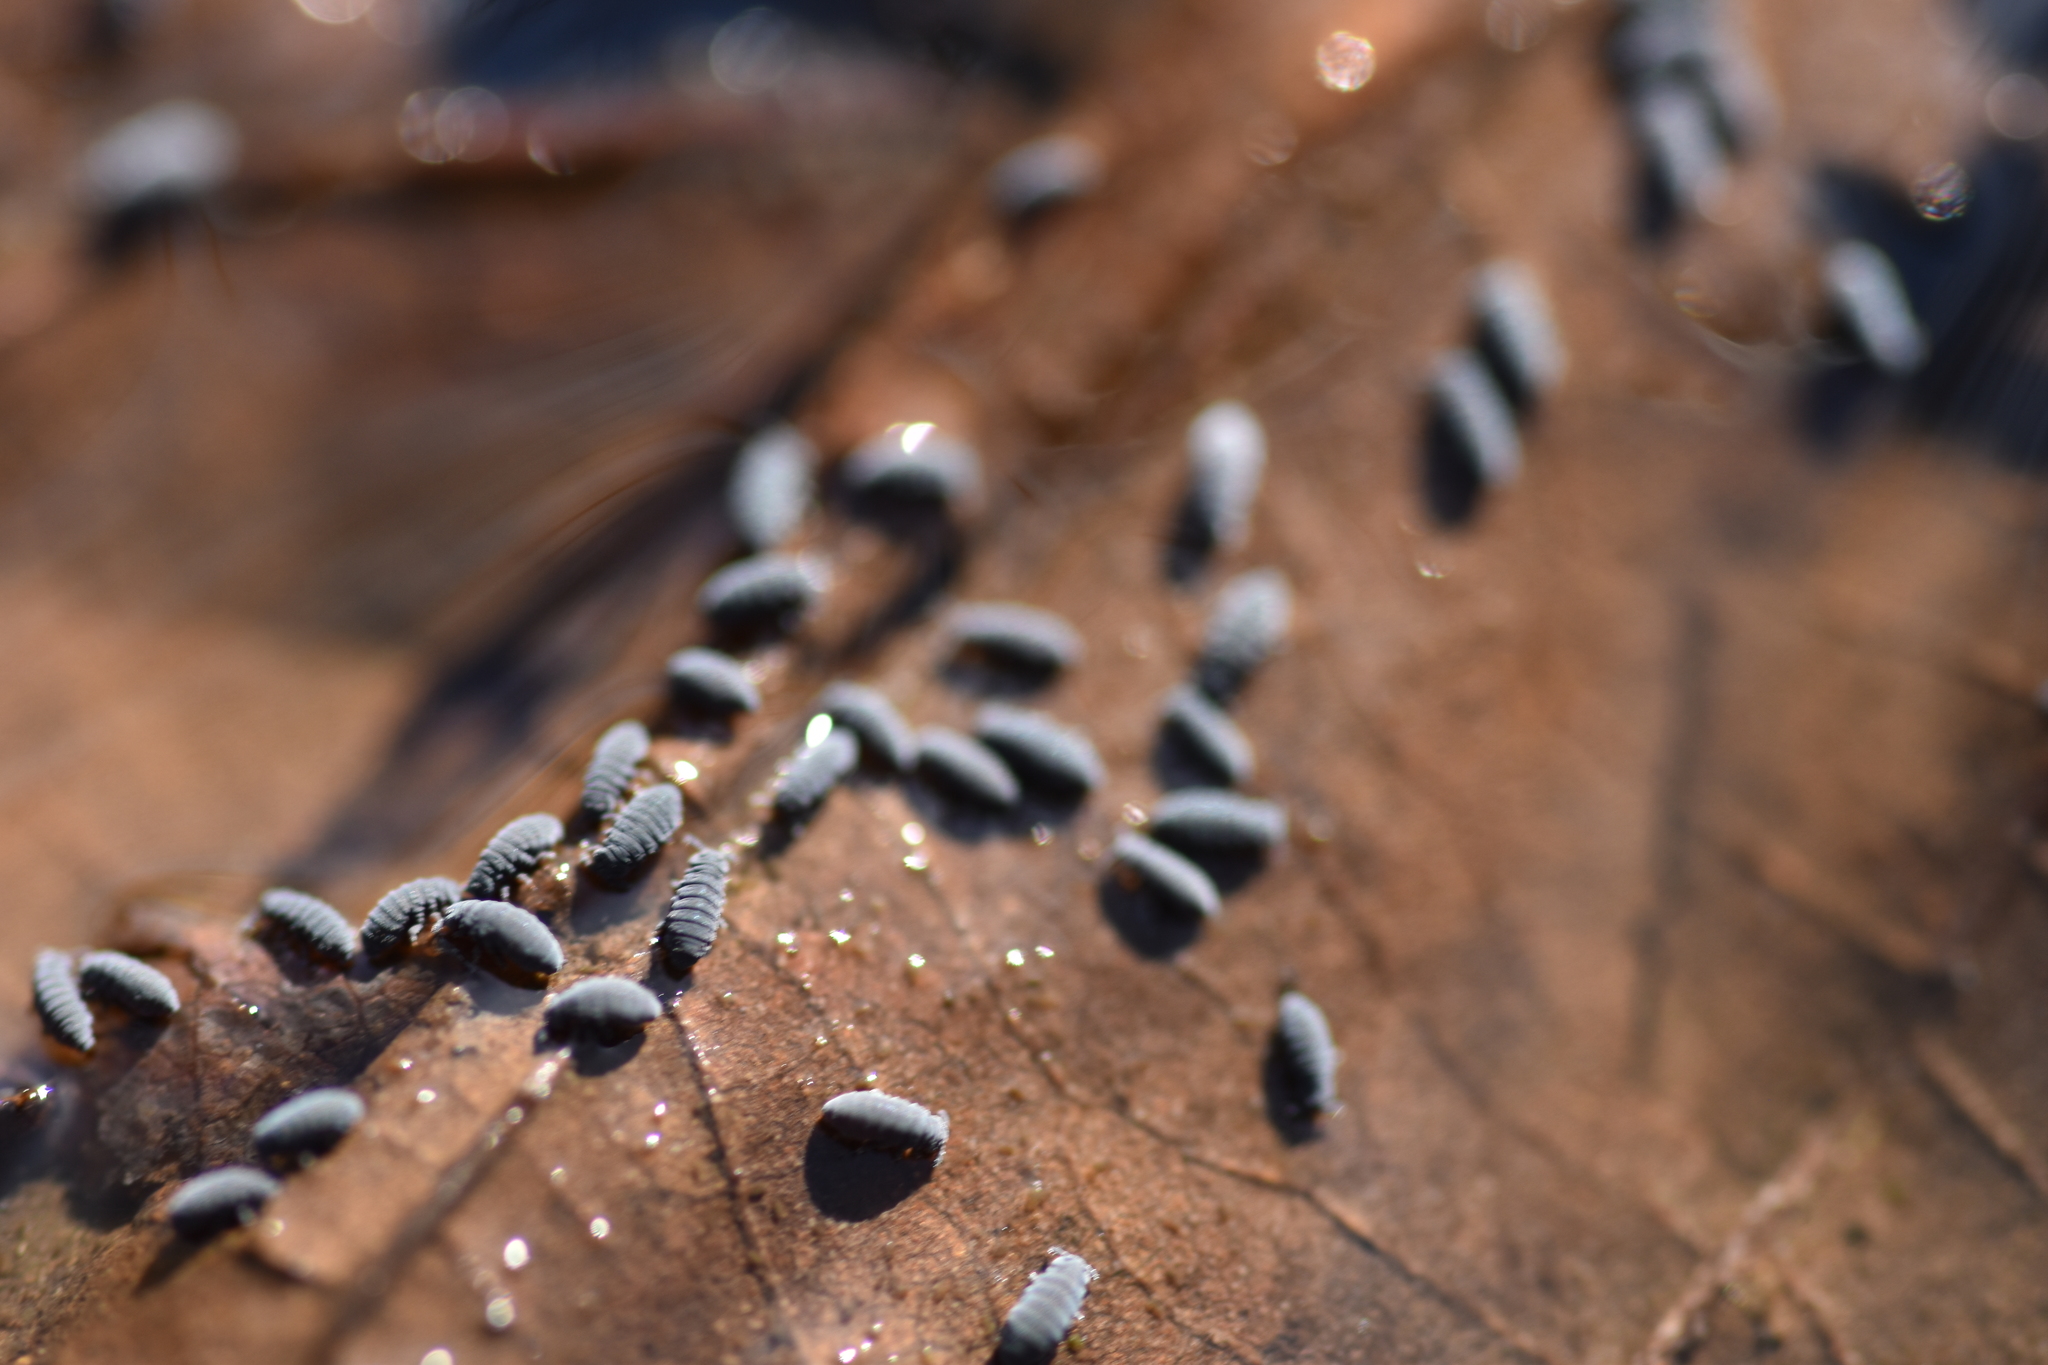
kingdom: Animalia
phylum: Arthropoda
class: Collembola
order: Poduromorpha
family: Poduridae
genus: Podura
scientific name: Podura aquatica
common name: Water springtail
